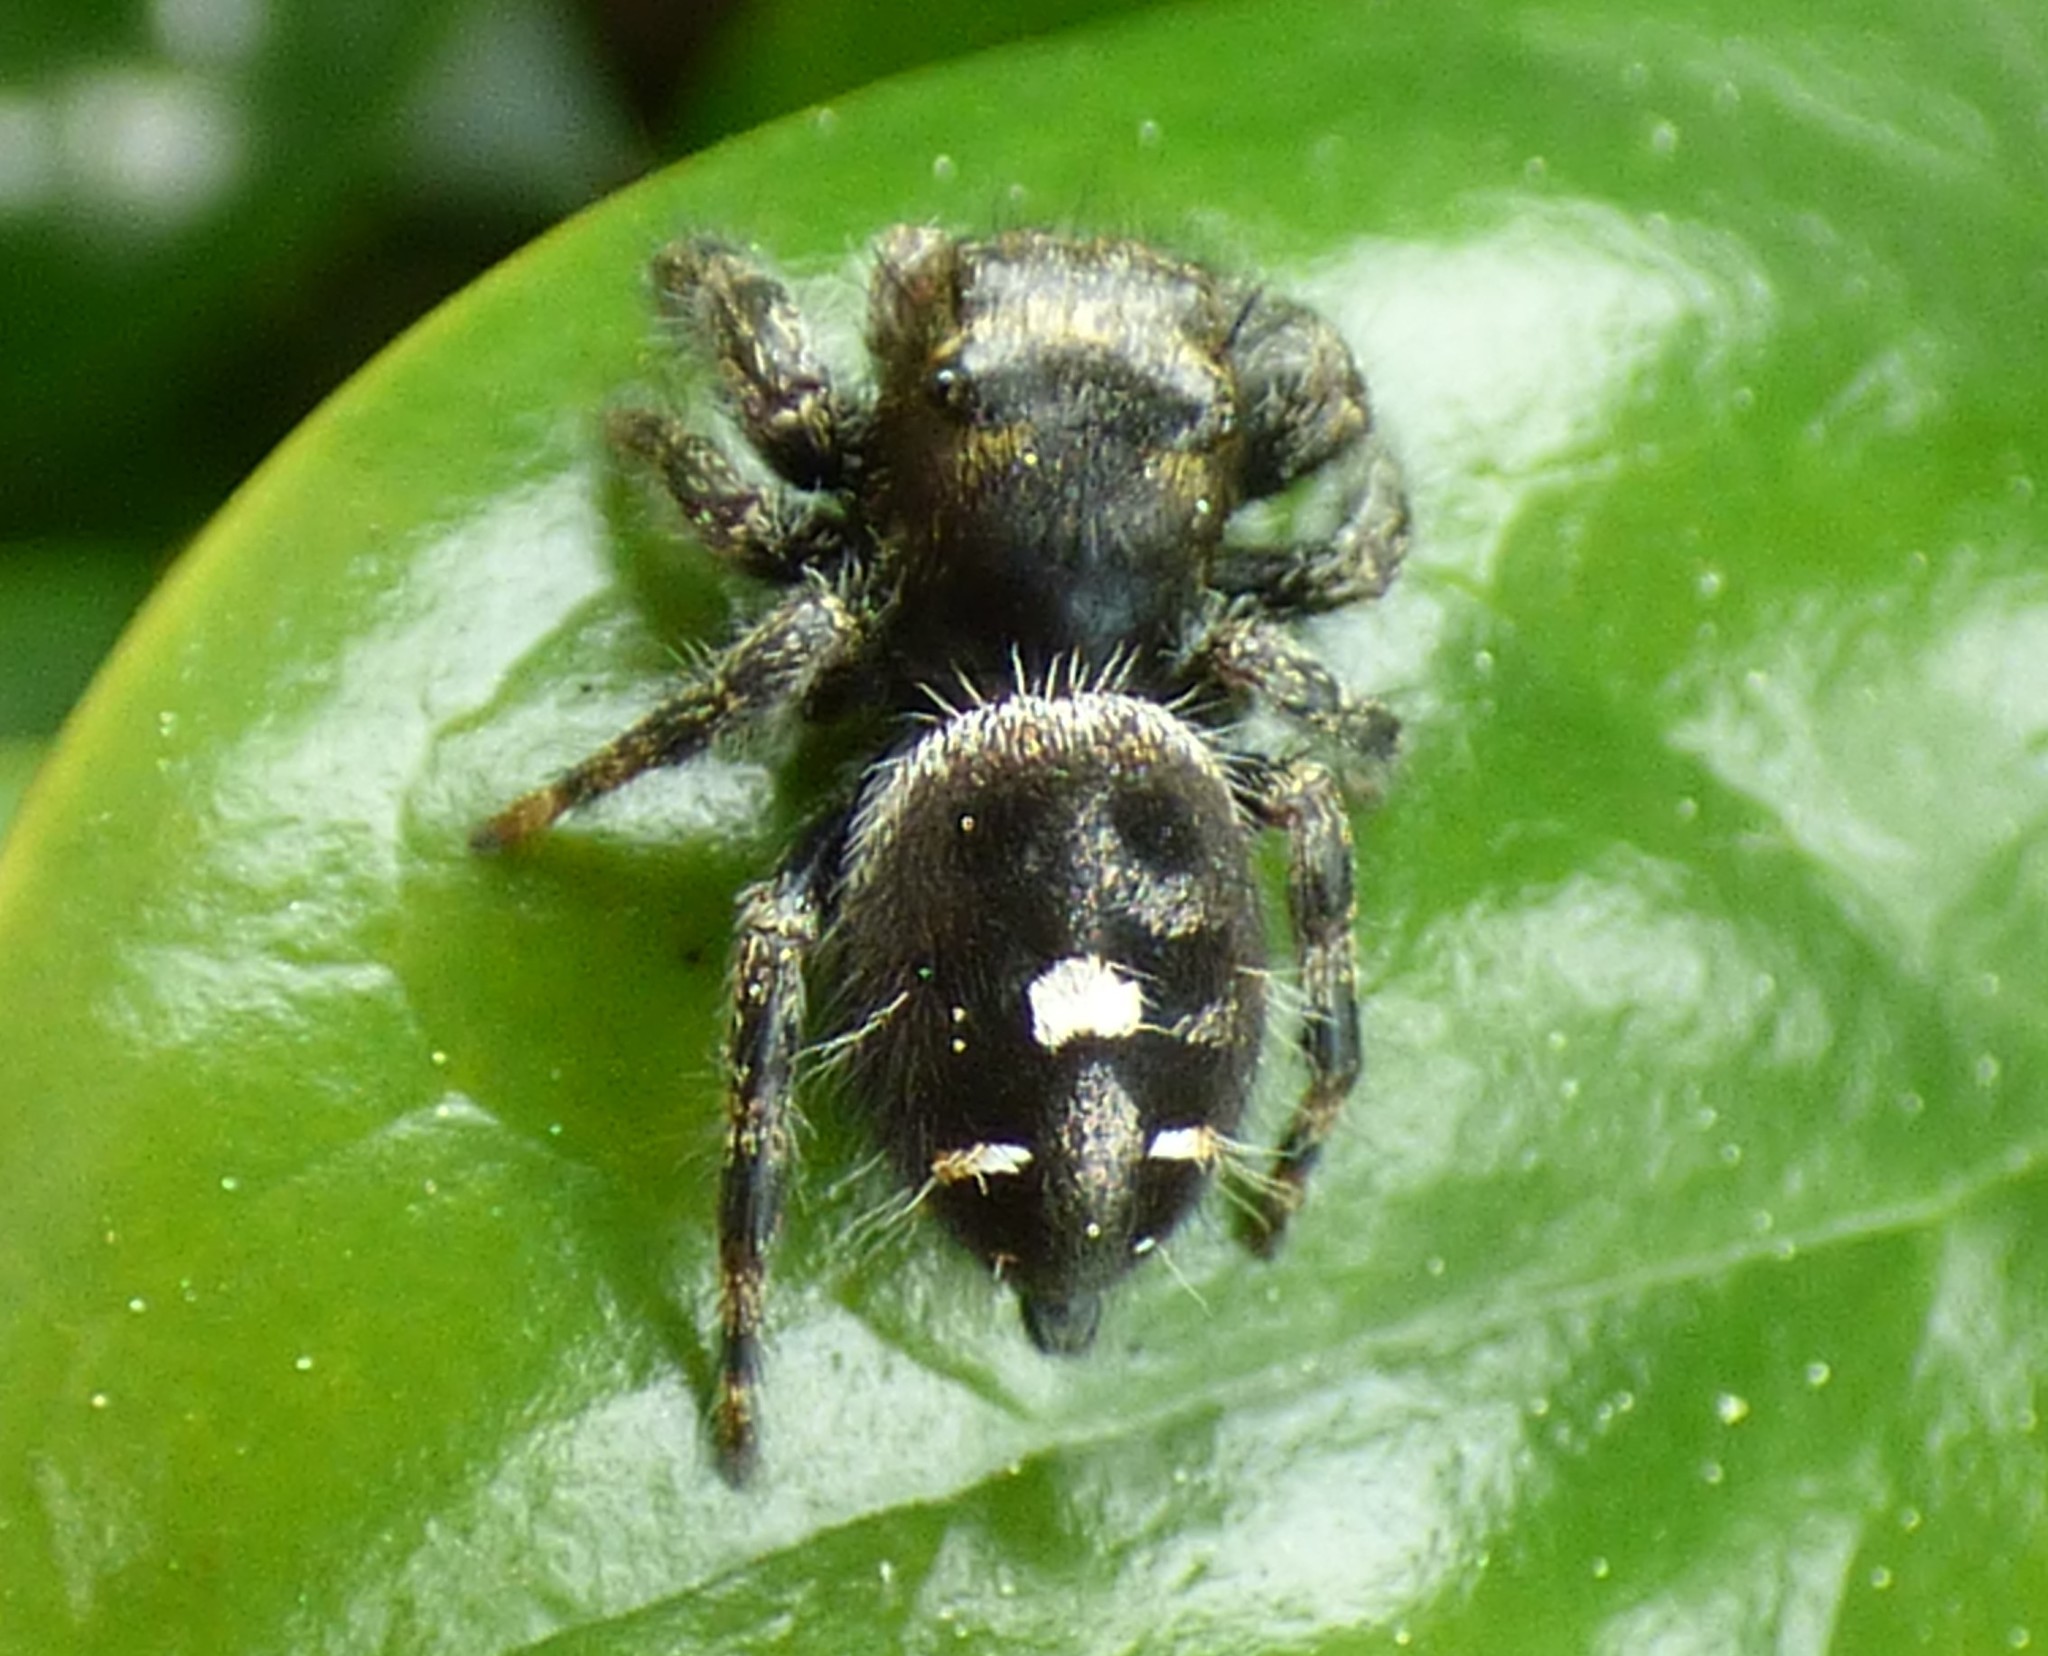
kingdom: Animalia
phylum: Arthropoda
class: Arachnida
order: Araneae
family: Salticidae
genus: Phidippus
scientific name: Phidippus audax
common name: Bold jumper
